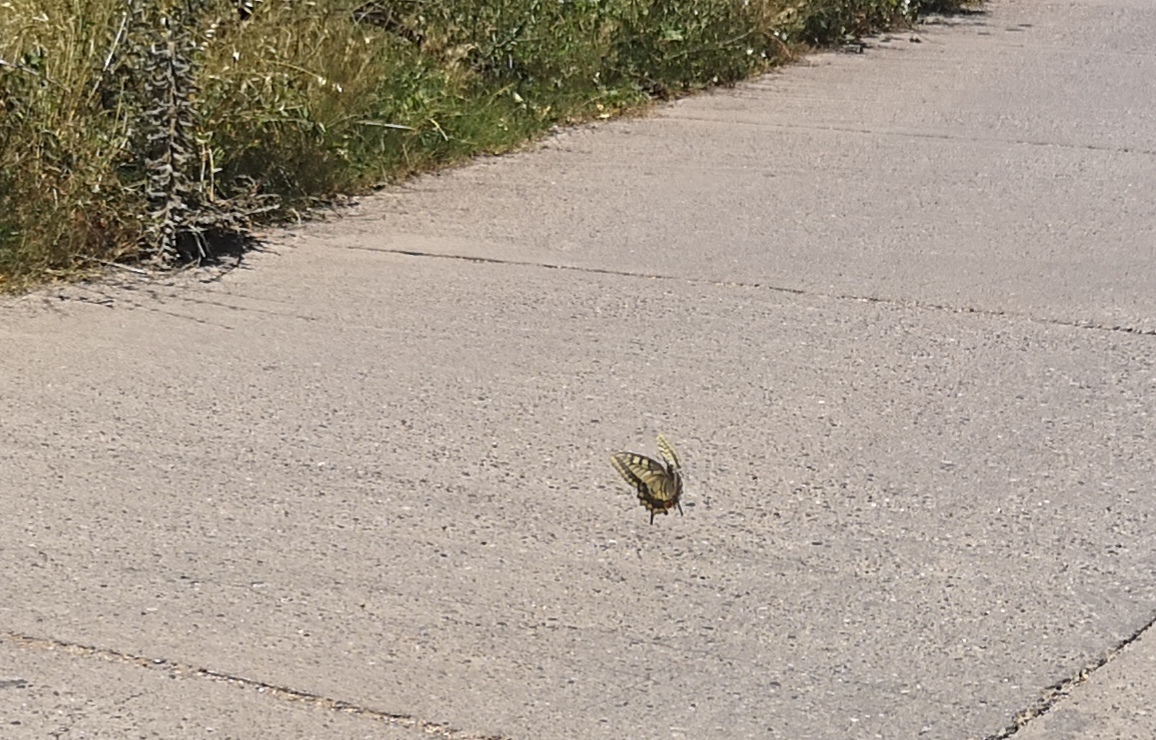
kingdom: Animalia
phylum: Arthropoda
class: Insecta
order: Lepidoptera
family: Papilionidae
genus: Papilio
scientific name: Papilio machaon
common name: Swallowtail
